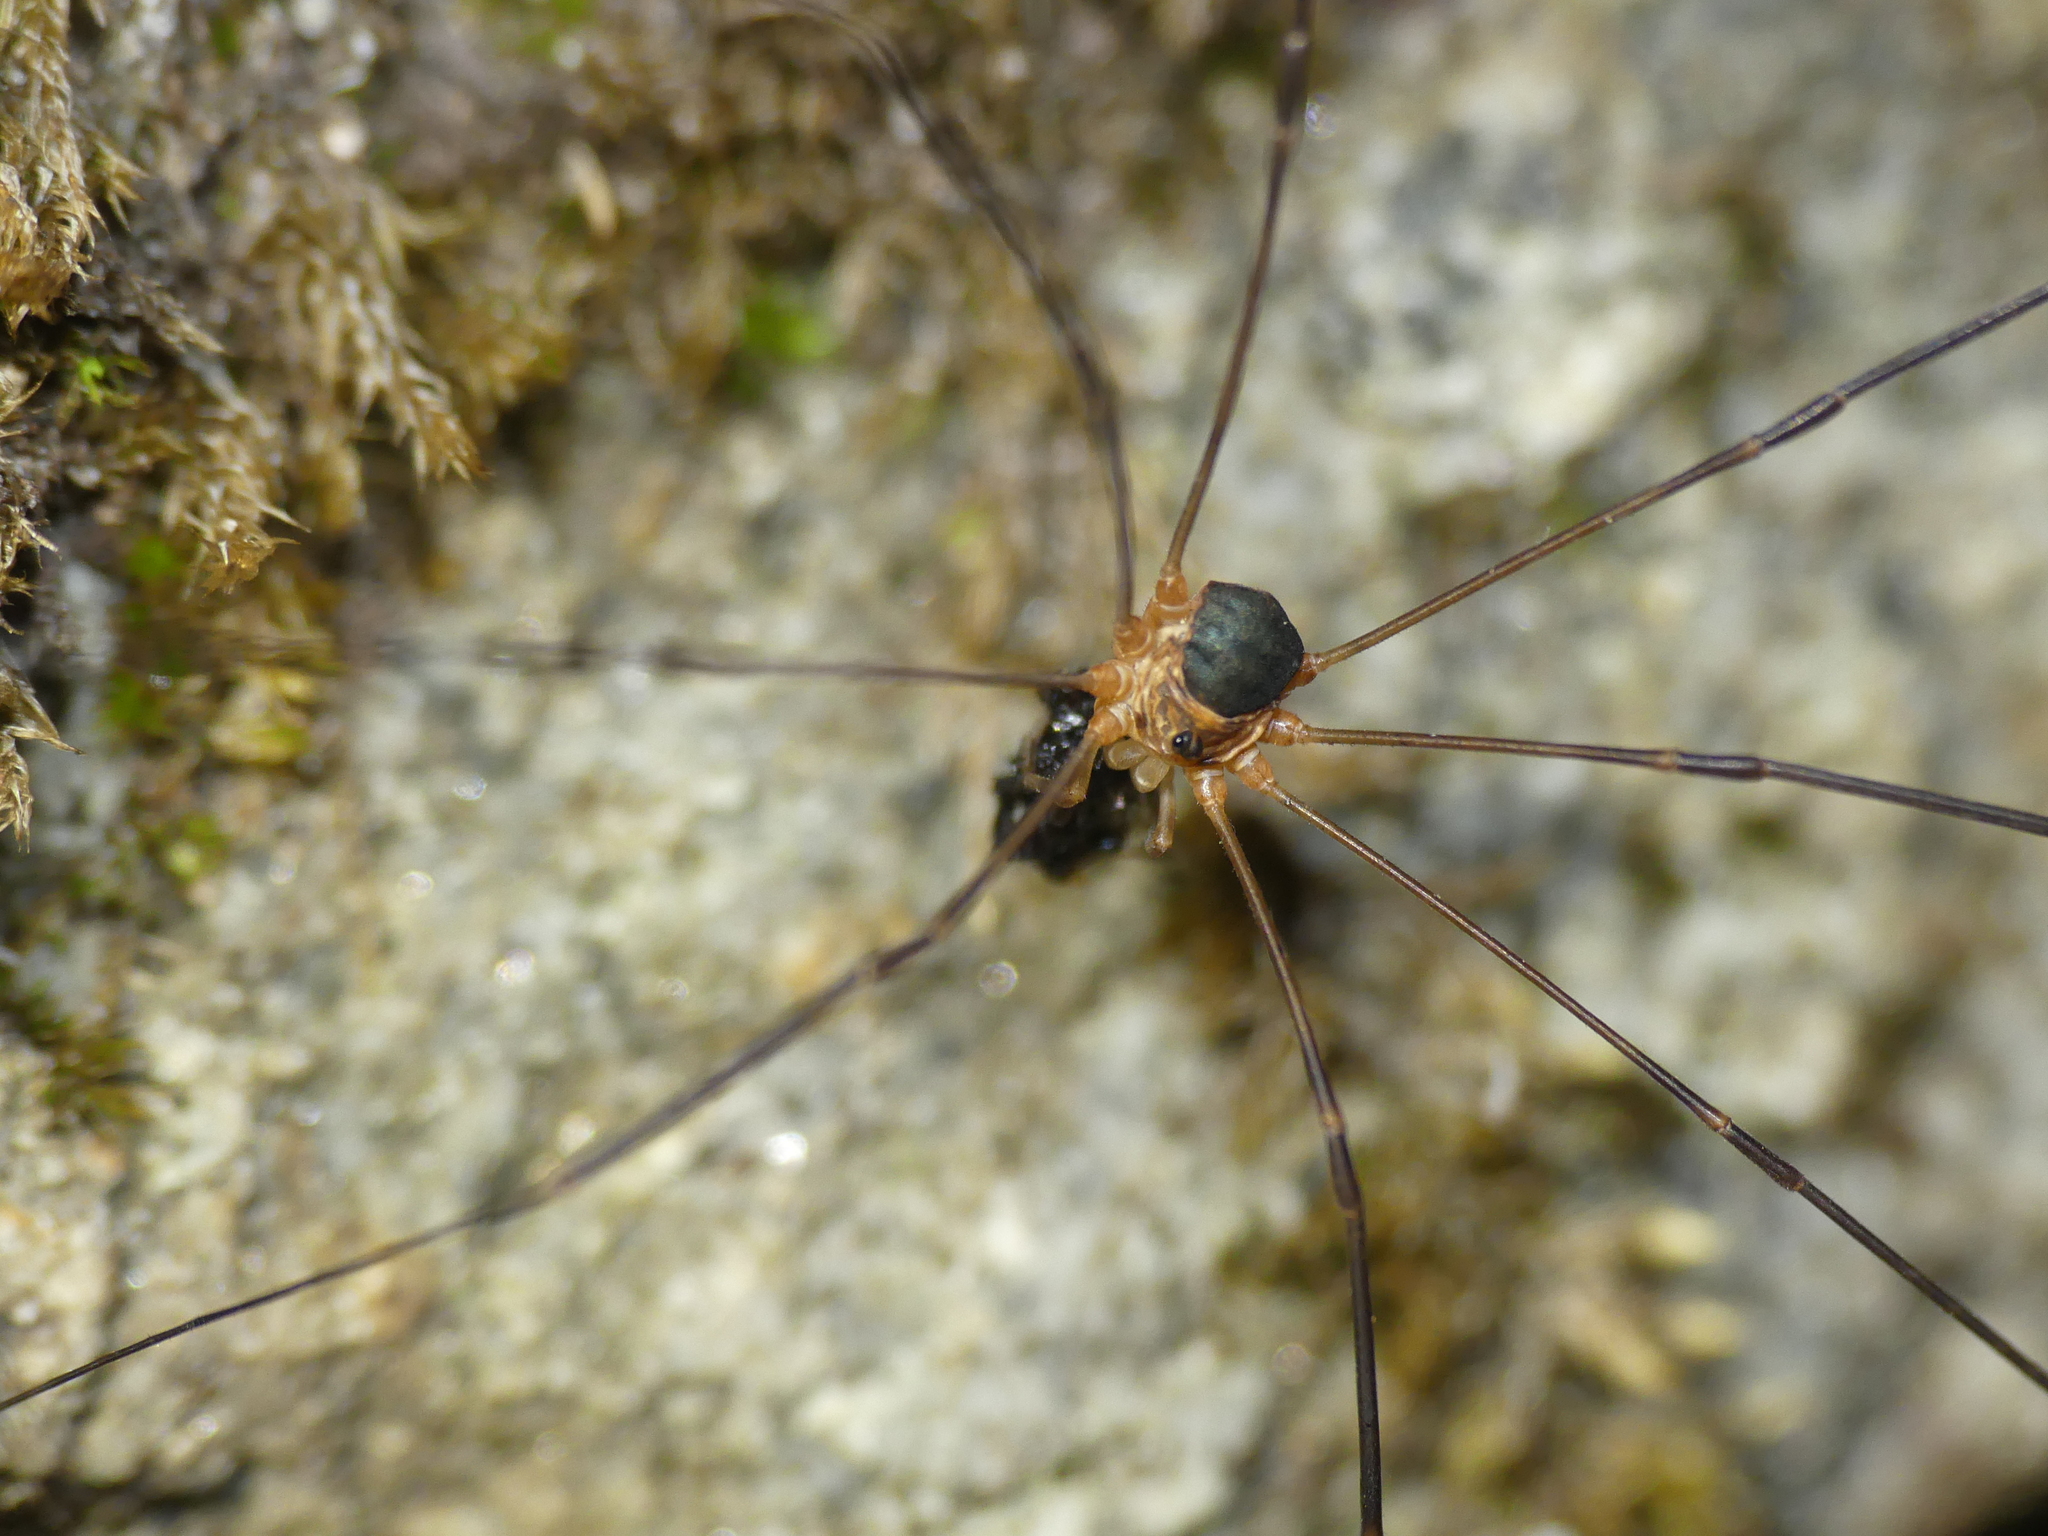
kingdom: Animalia
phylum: Arthropoda
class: Arachnida
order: Opiliones
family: Phalangiidae
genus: Amilenus
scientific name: Amilenus aurantiacus
